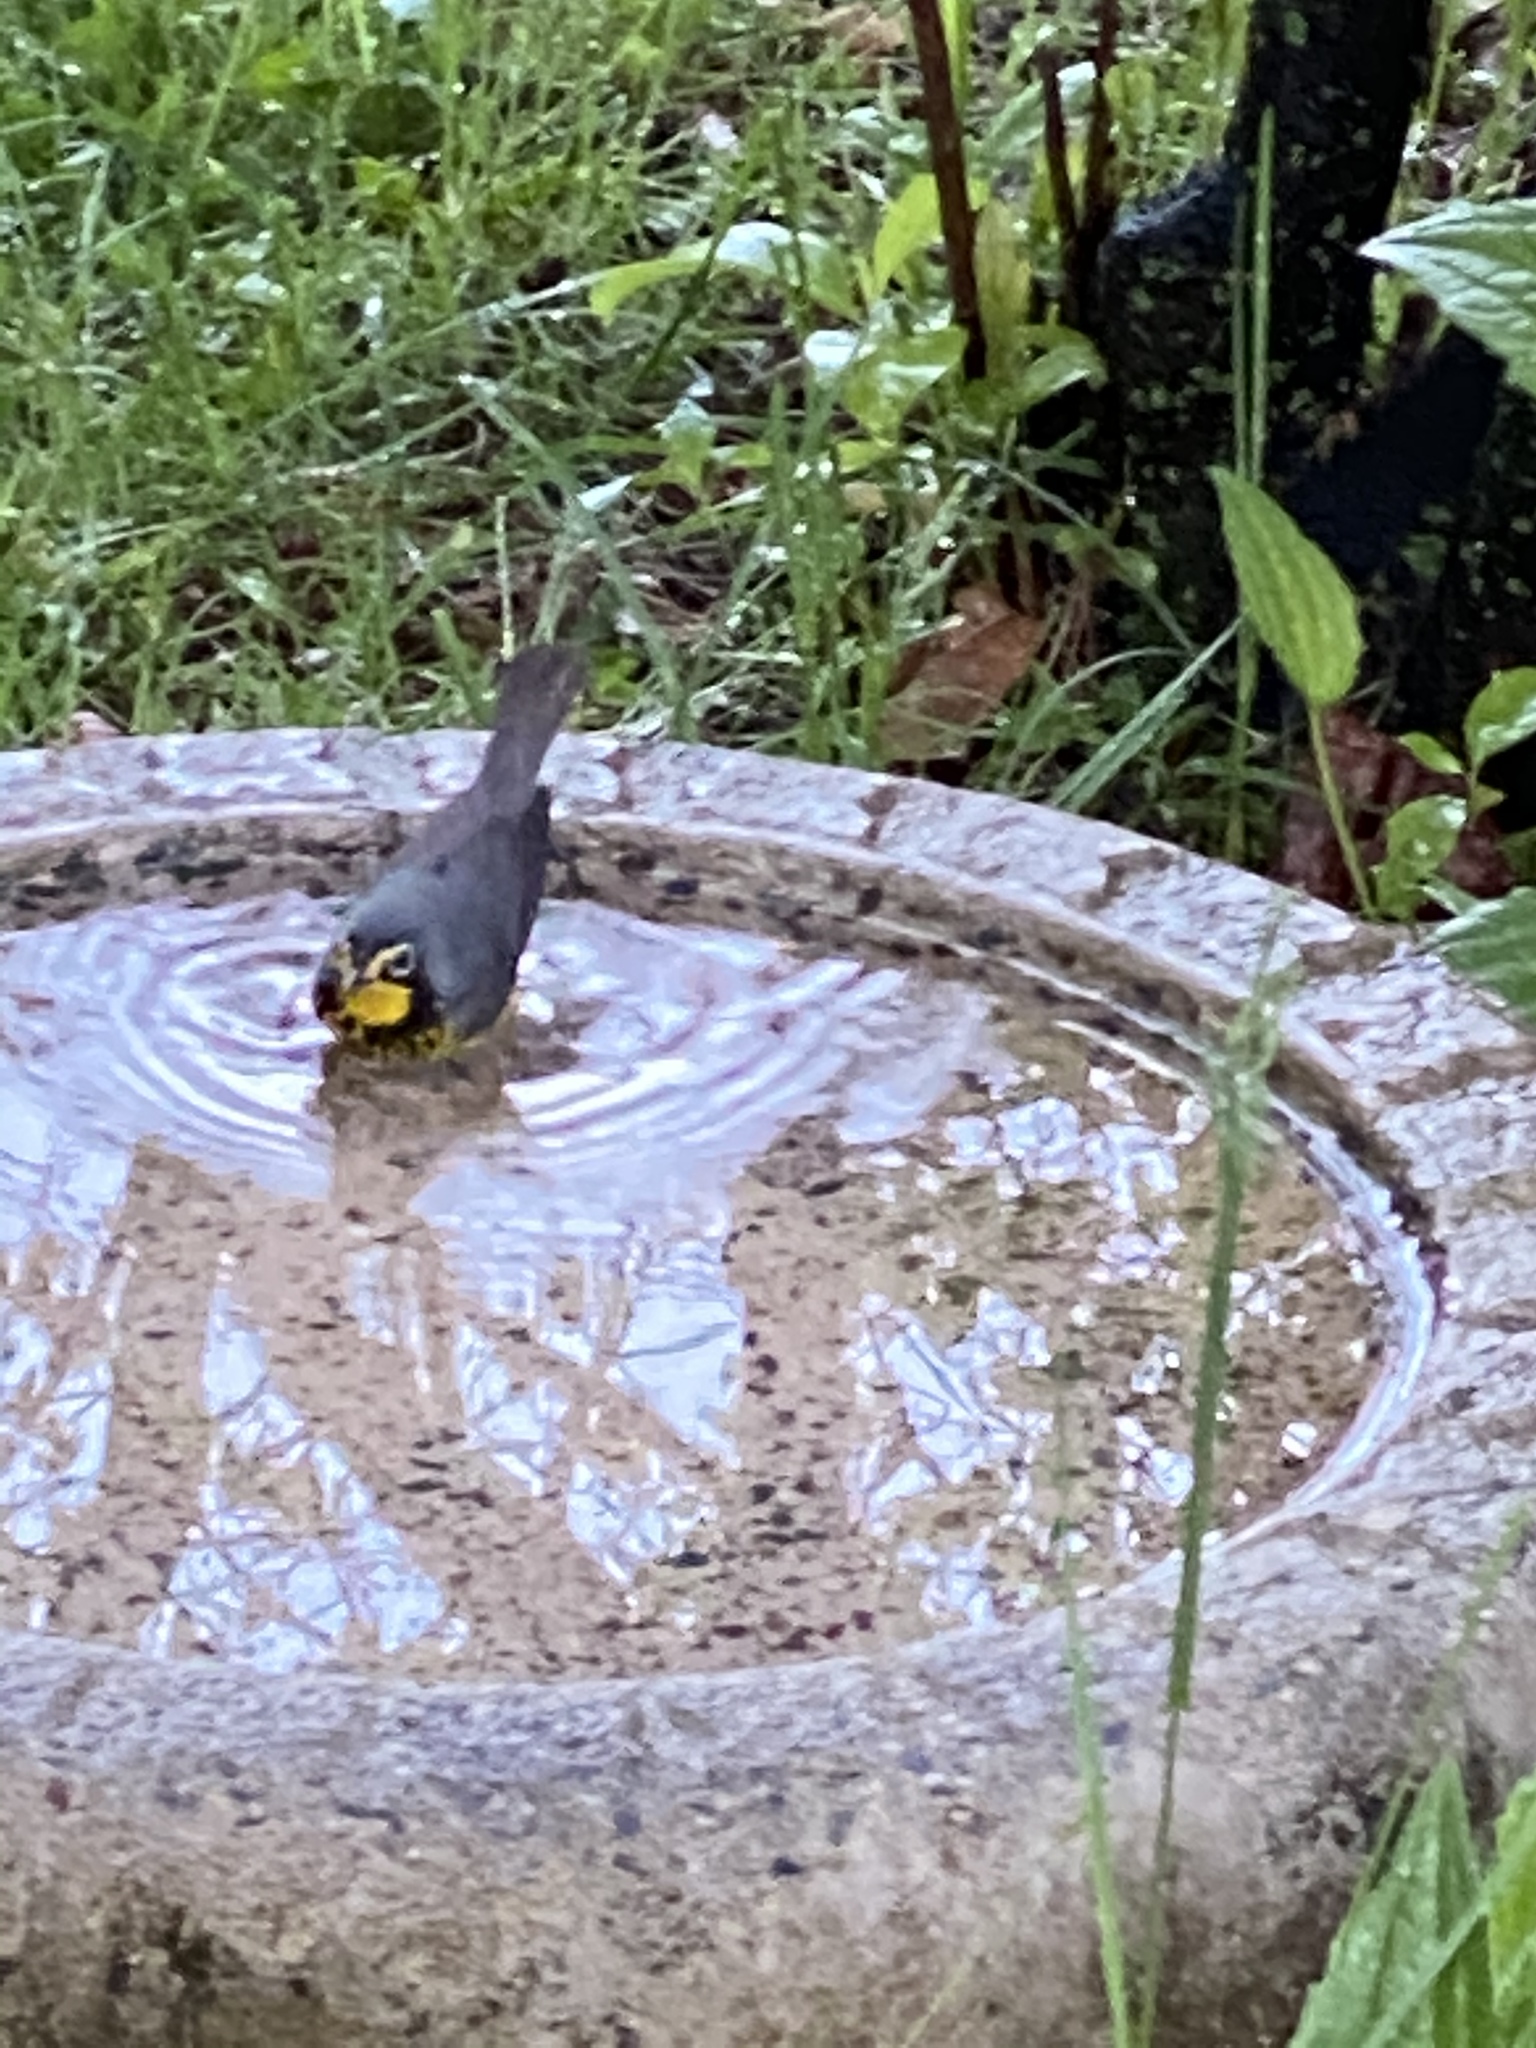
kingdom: Animalia
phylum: Chordata
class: Aves
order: Passeriformes
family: Parulidae
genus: Cardellina
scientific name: Cardellina canadensis
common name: Canada warbler
